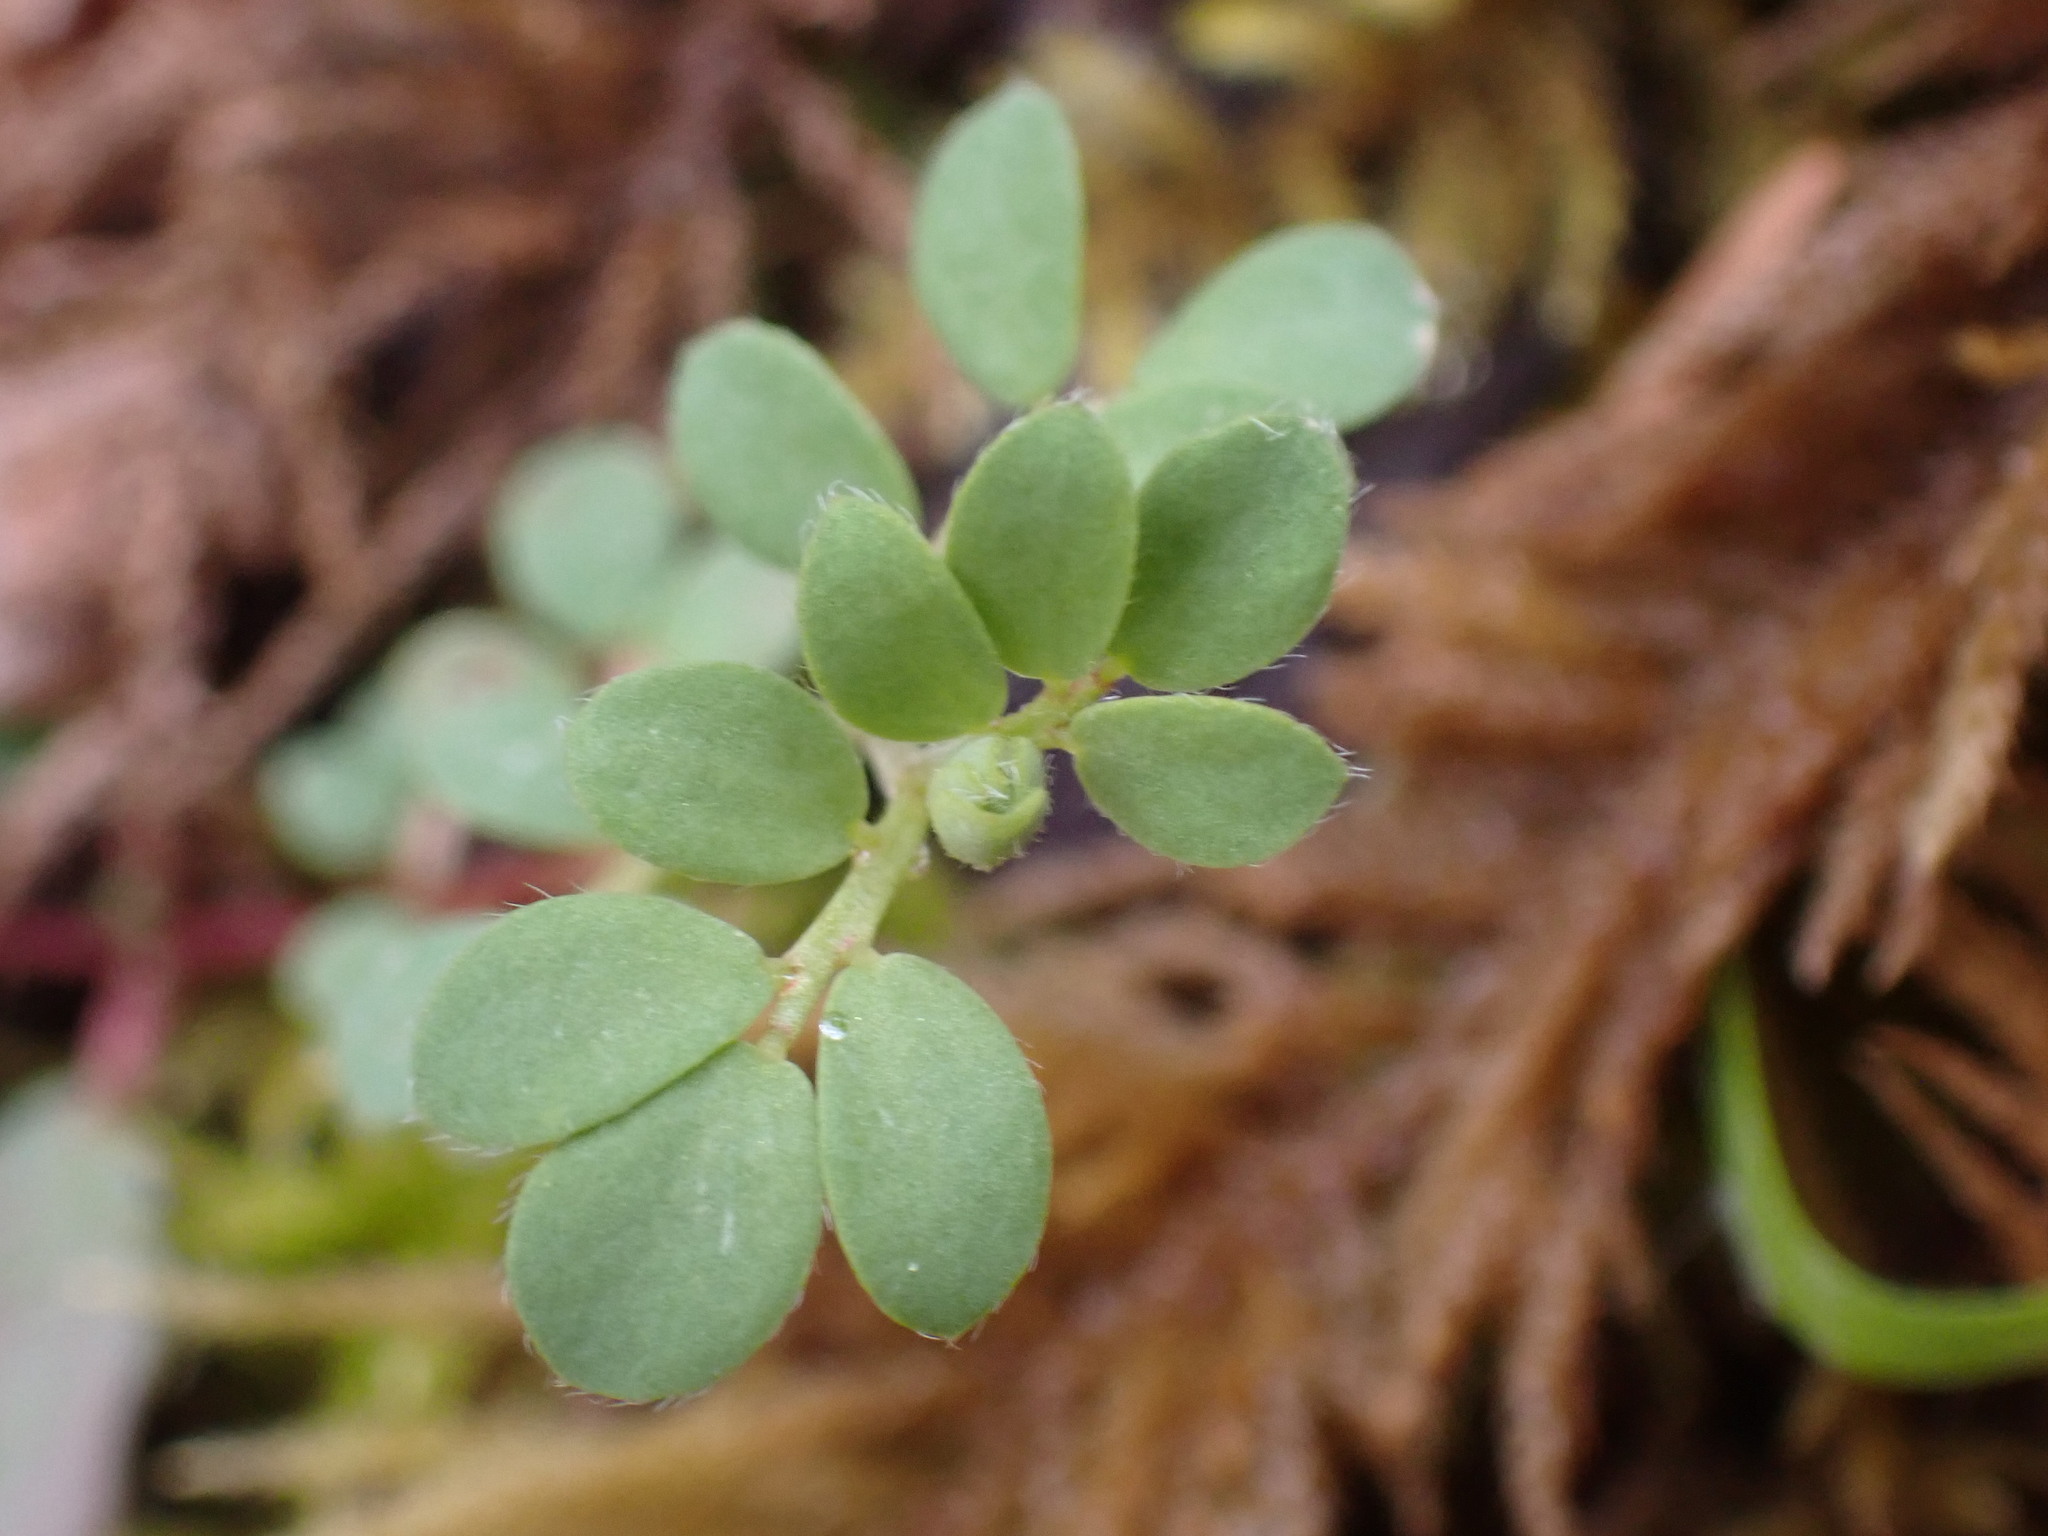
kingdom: Plantae
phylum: Tracheophyta
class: Magnoliopsida
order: Fabales
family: Fabaceae
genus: Acmispon
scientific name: Acmispon parviflorus
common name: Desert deer-vetch
